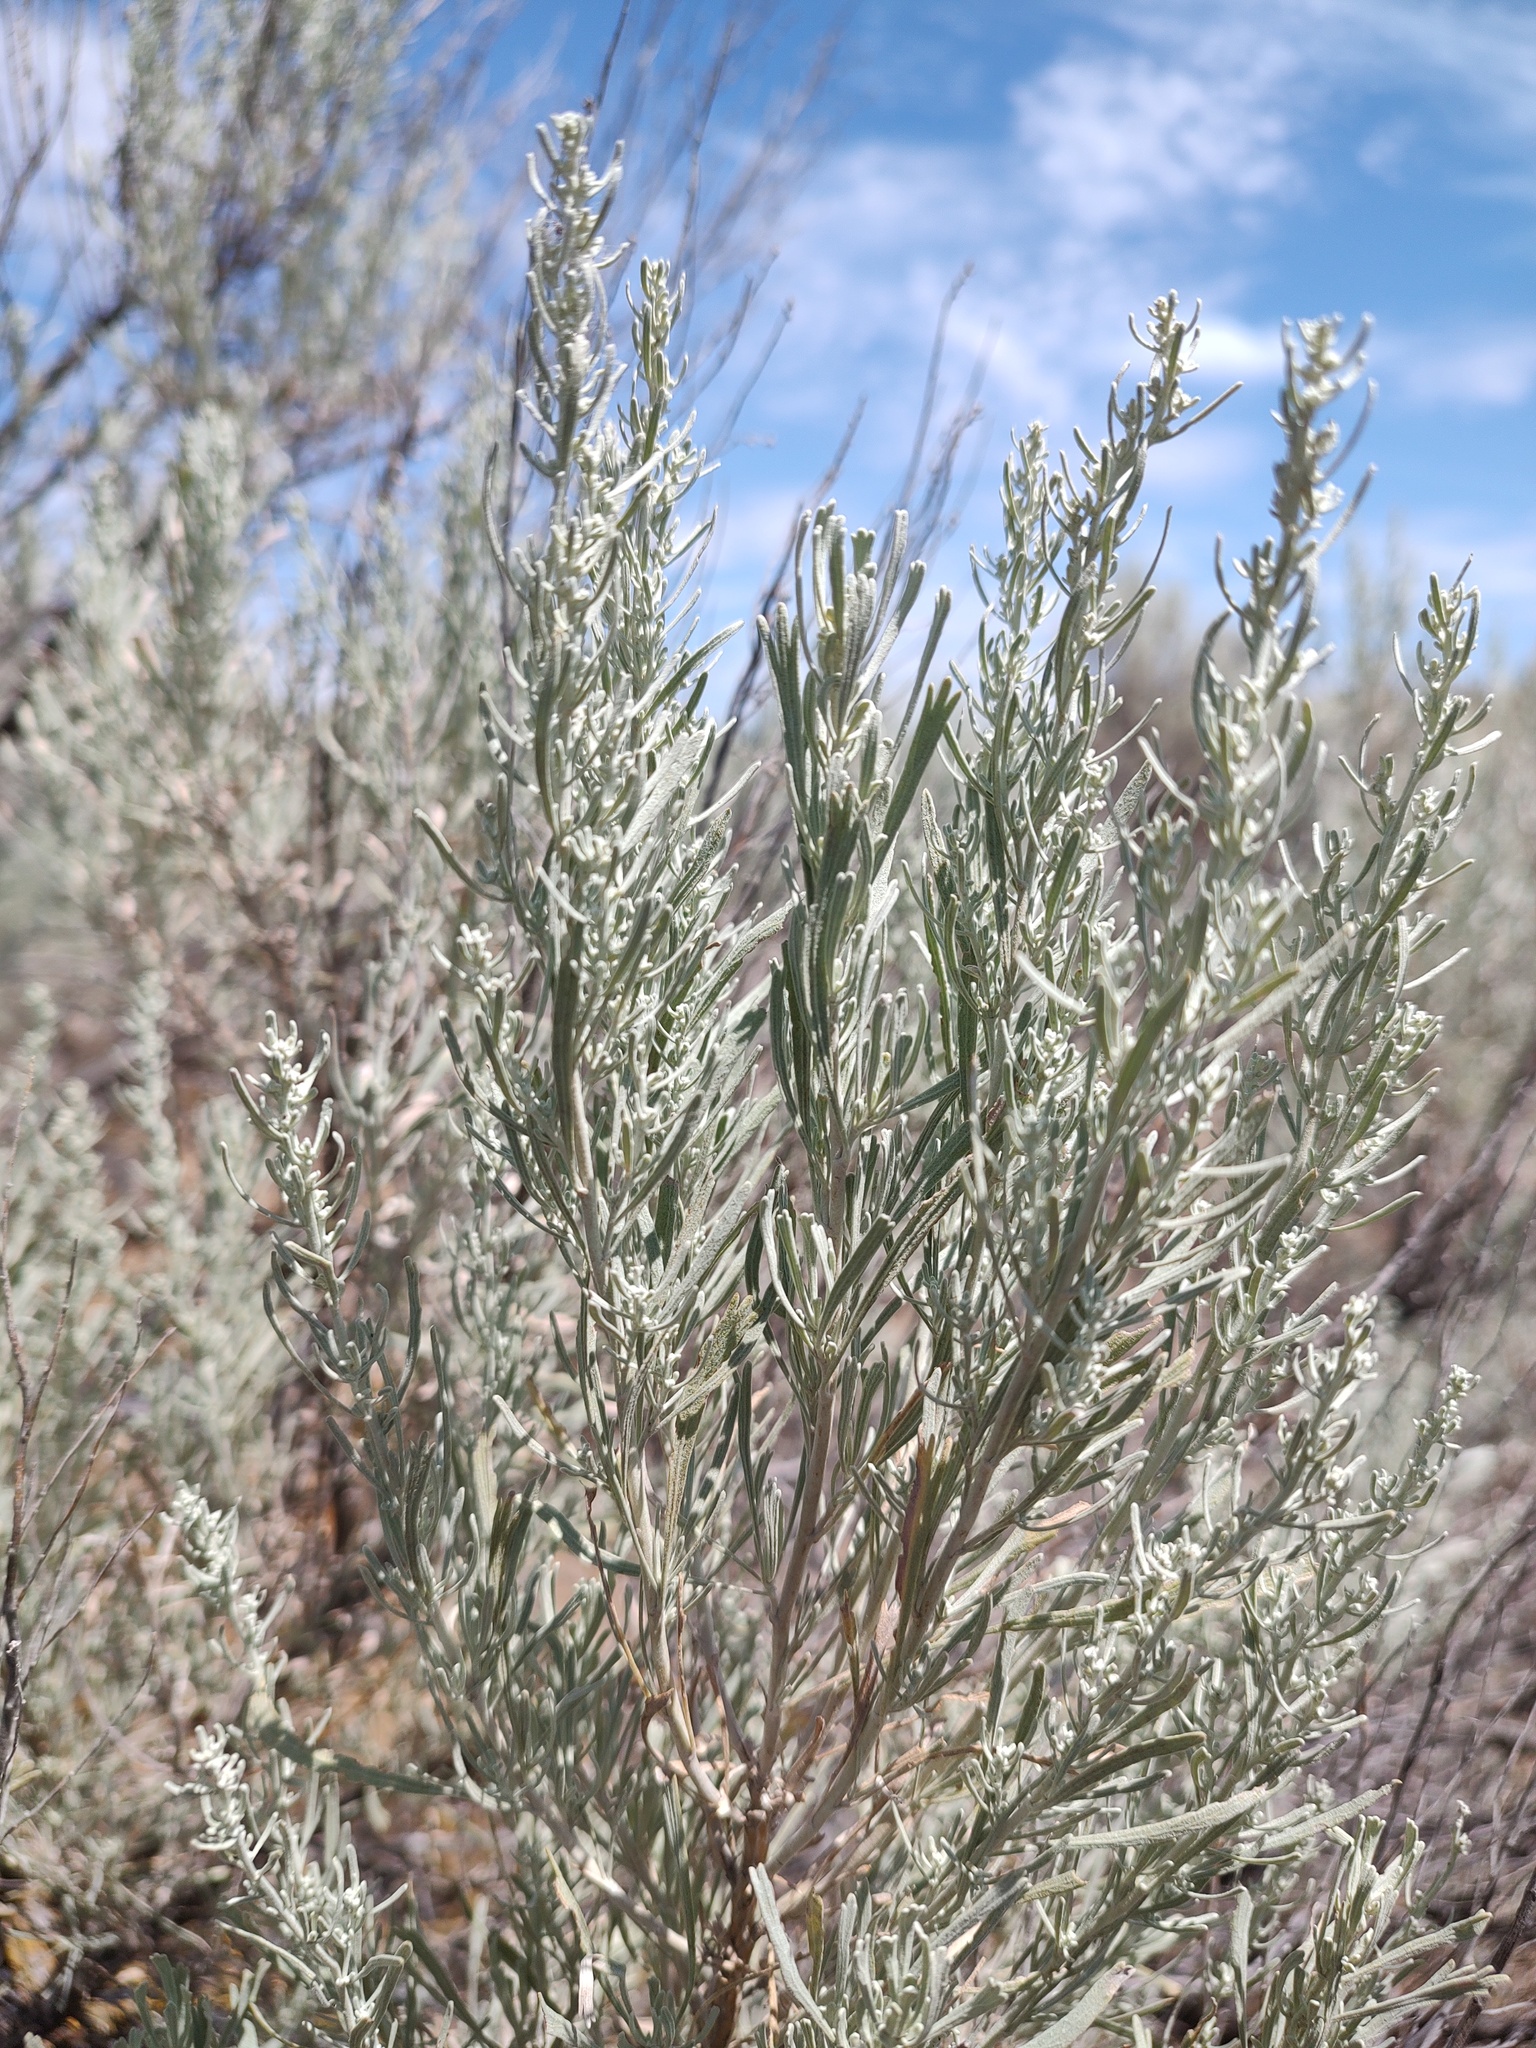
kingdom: Plantae
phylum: Tracheophyta
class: Magnoliopsida
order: Asterales
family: Asteraceae
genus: Artemisia
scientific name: Artemisia tridentata
